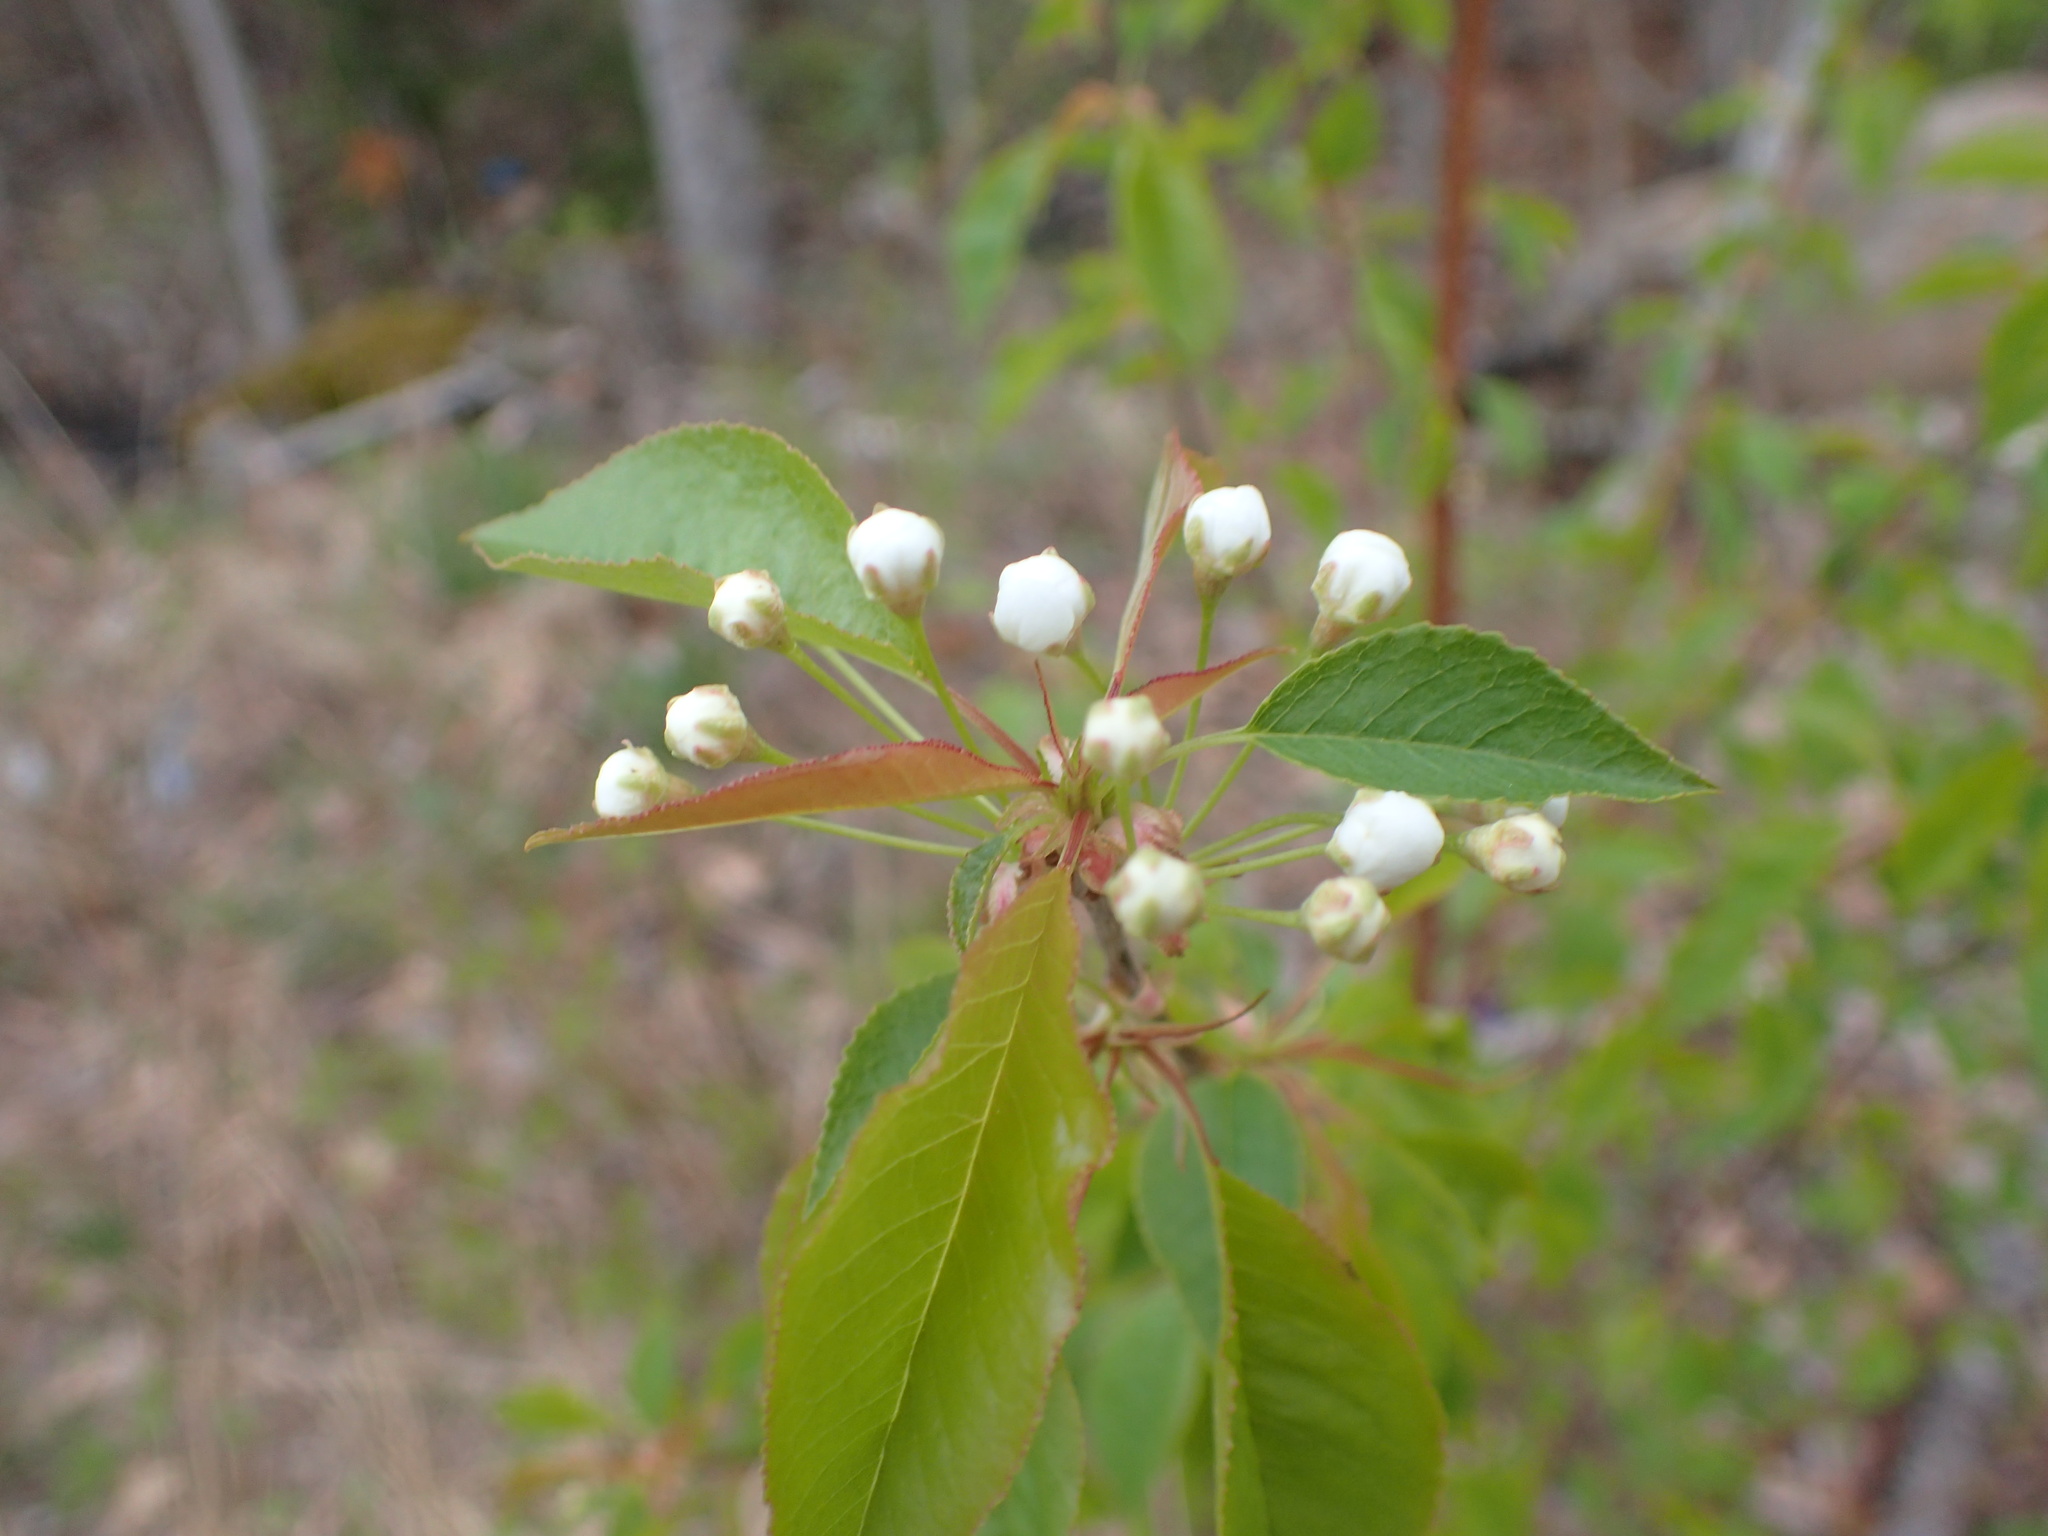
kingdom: Plantae
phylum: Tracheophyta
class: Magnoliopsida
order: Rosales
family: Rosaceae
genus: Prunus
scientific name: Prunus pensylvanica
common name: Pin cherry
